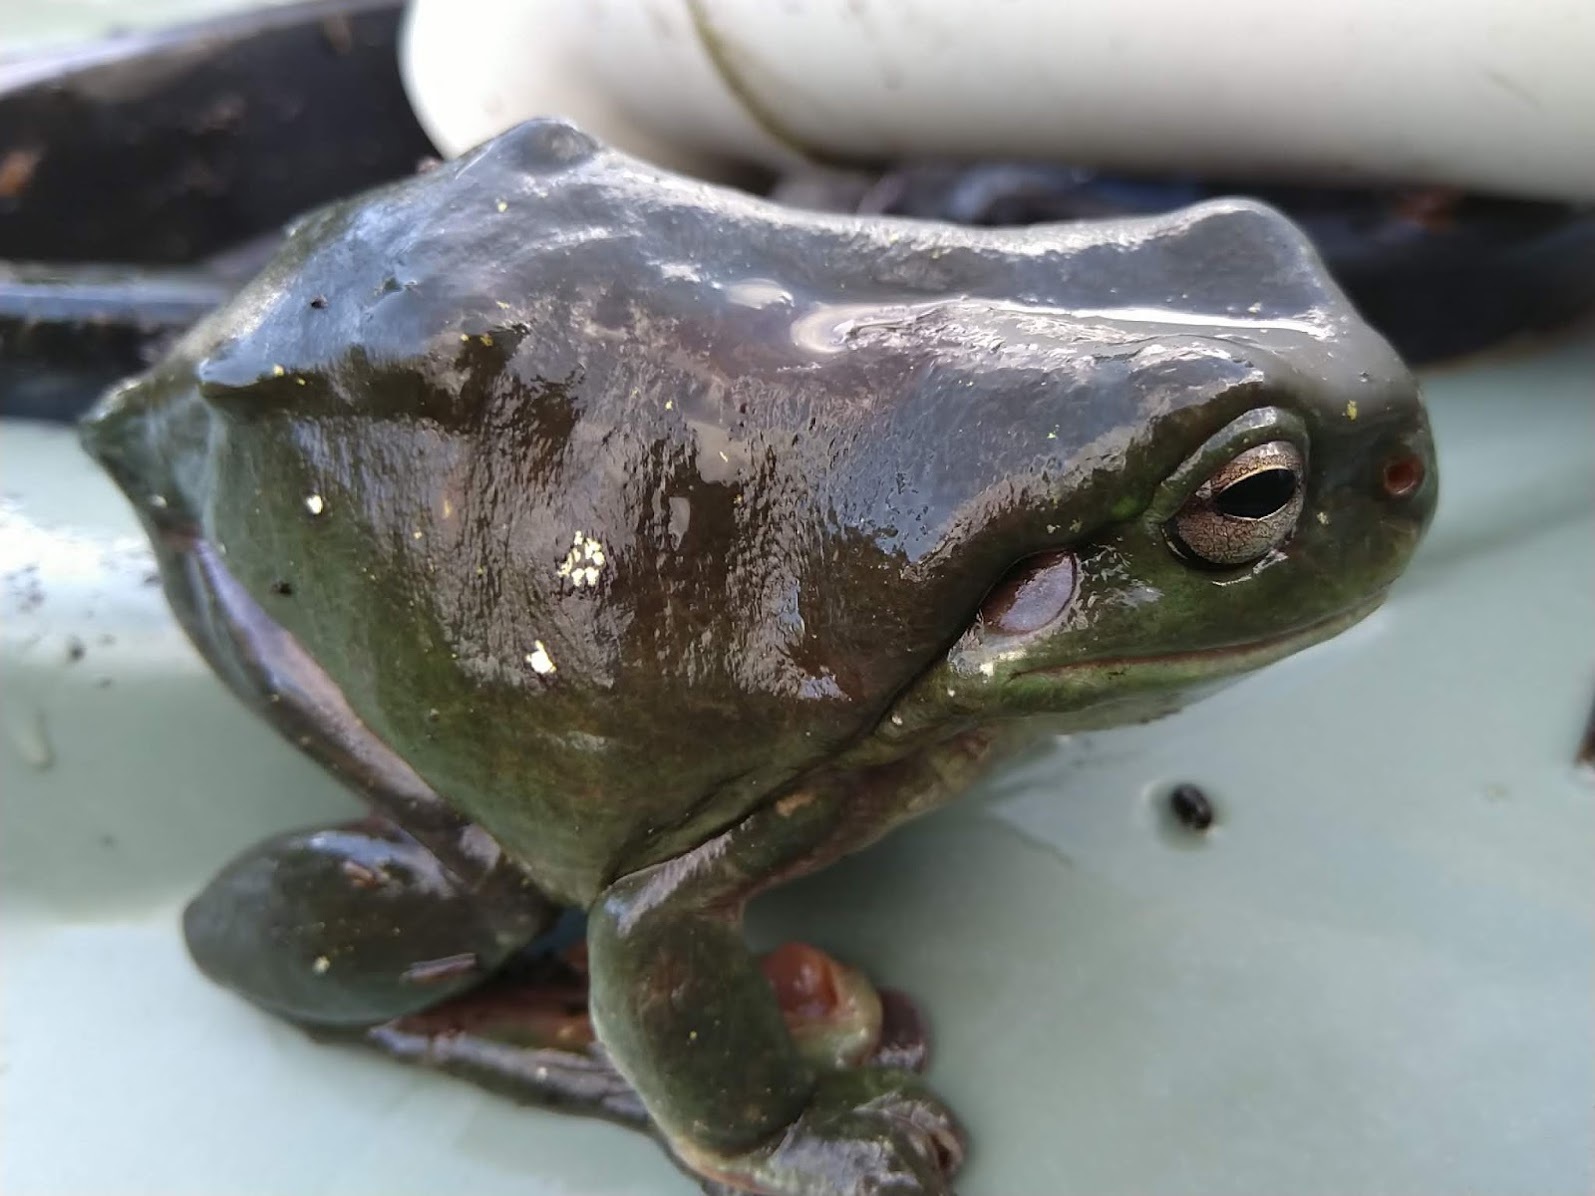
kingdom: Animalia
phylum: Chordata
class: Amphibia
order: Anura
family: Pelodryadidae
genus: Ranoidea
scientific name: Ranoidea caerulea
